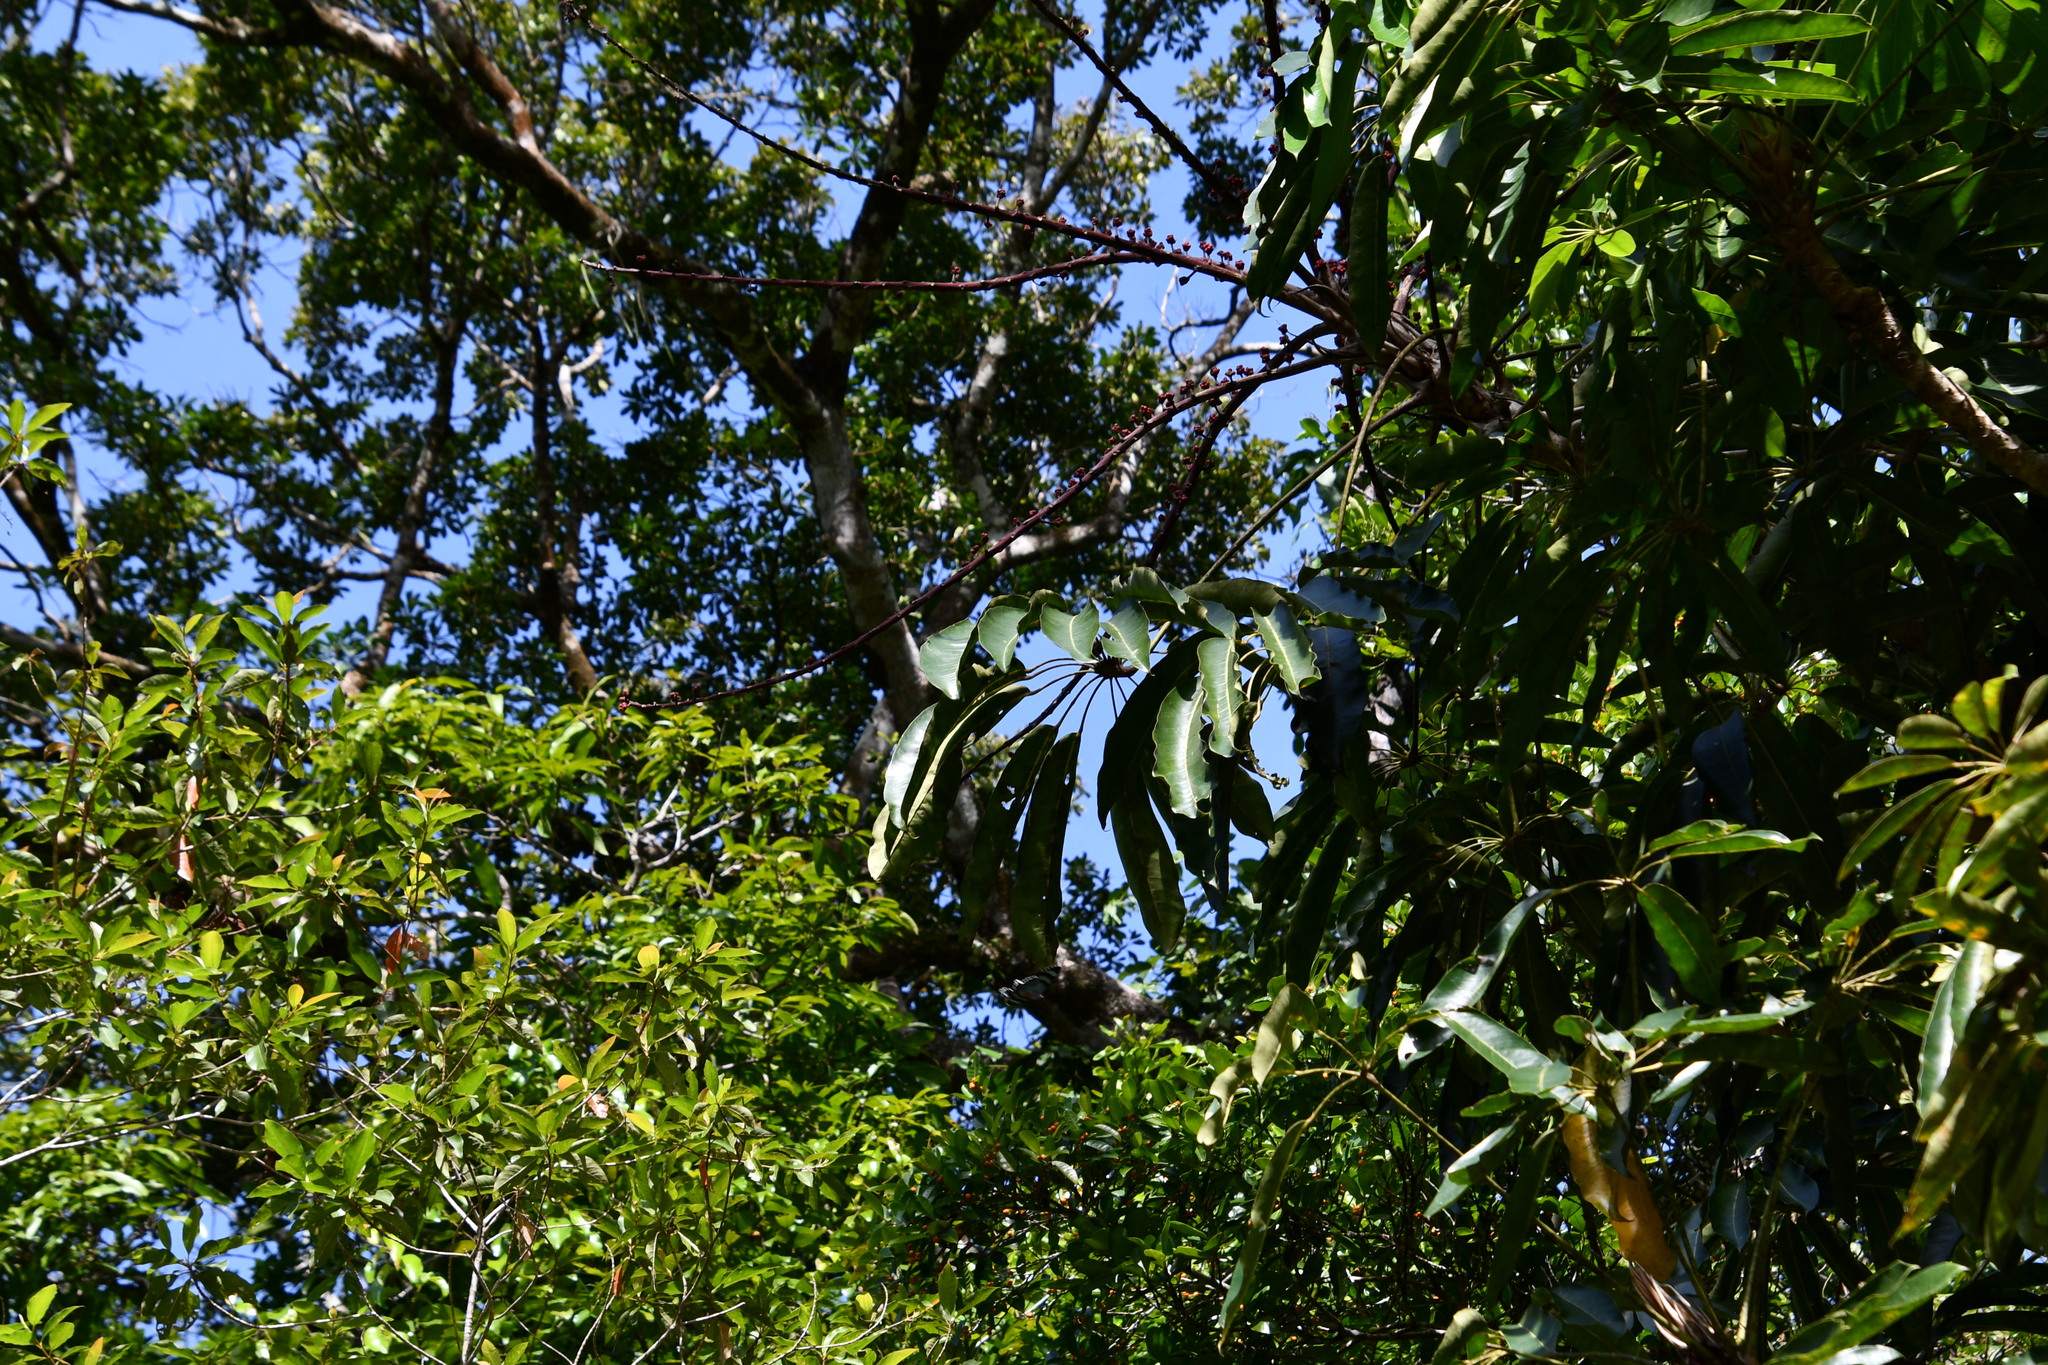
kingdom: Plantae
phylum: Tracheophyta
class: Magnoliopsida
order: Apiales
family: Araliaceae
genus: Heptapleurum
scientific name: Heptapleurum actinophyllum
